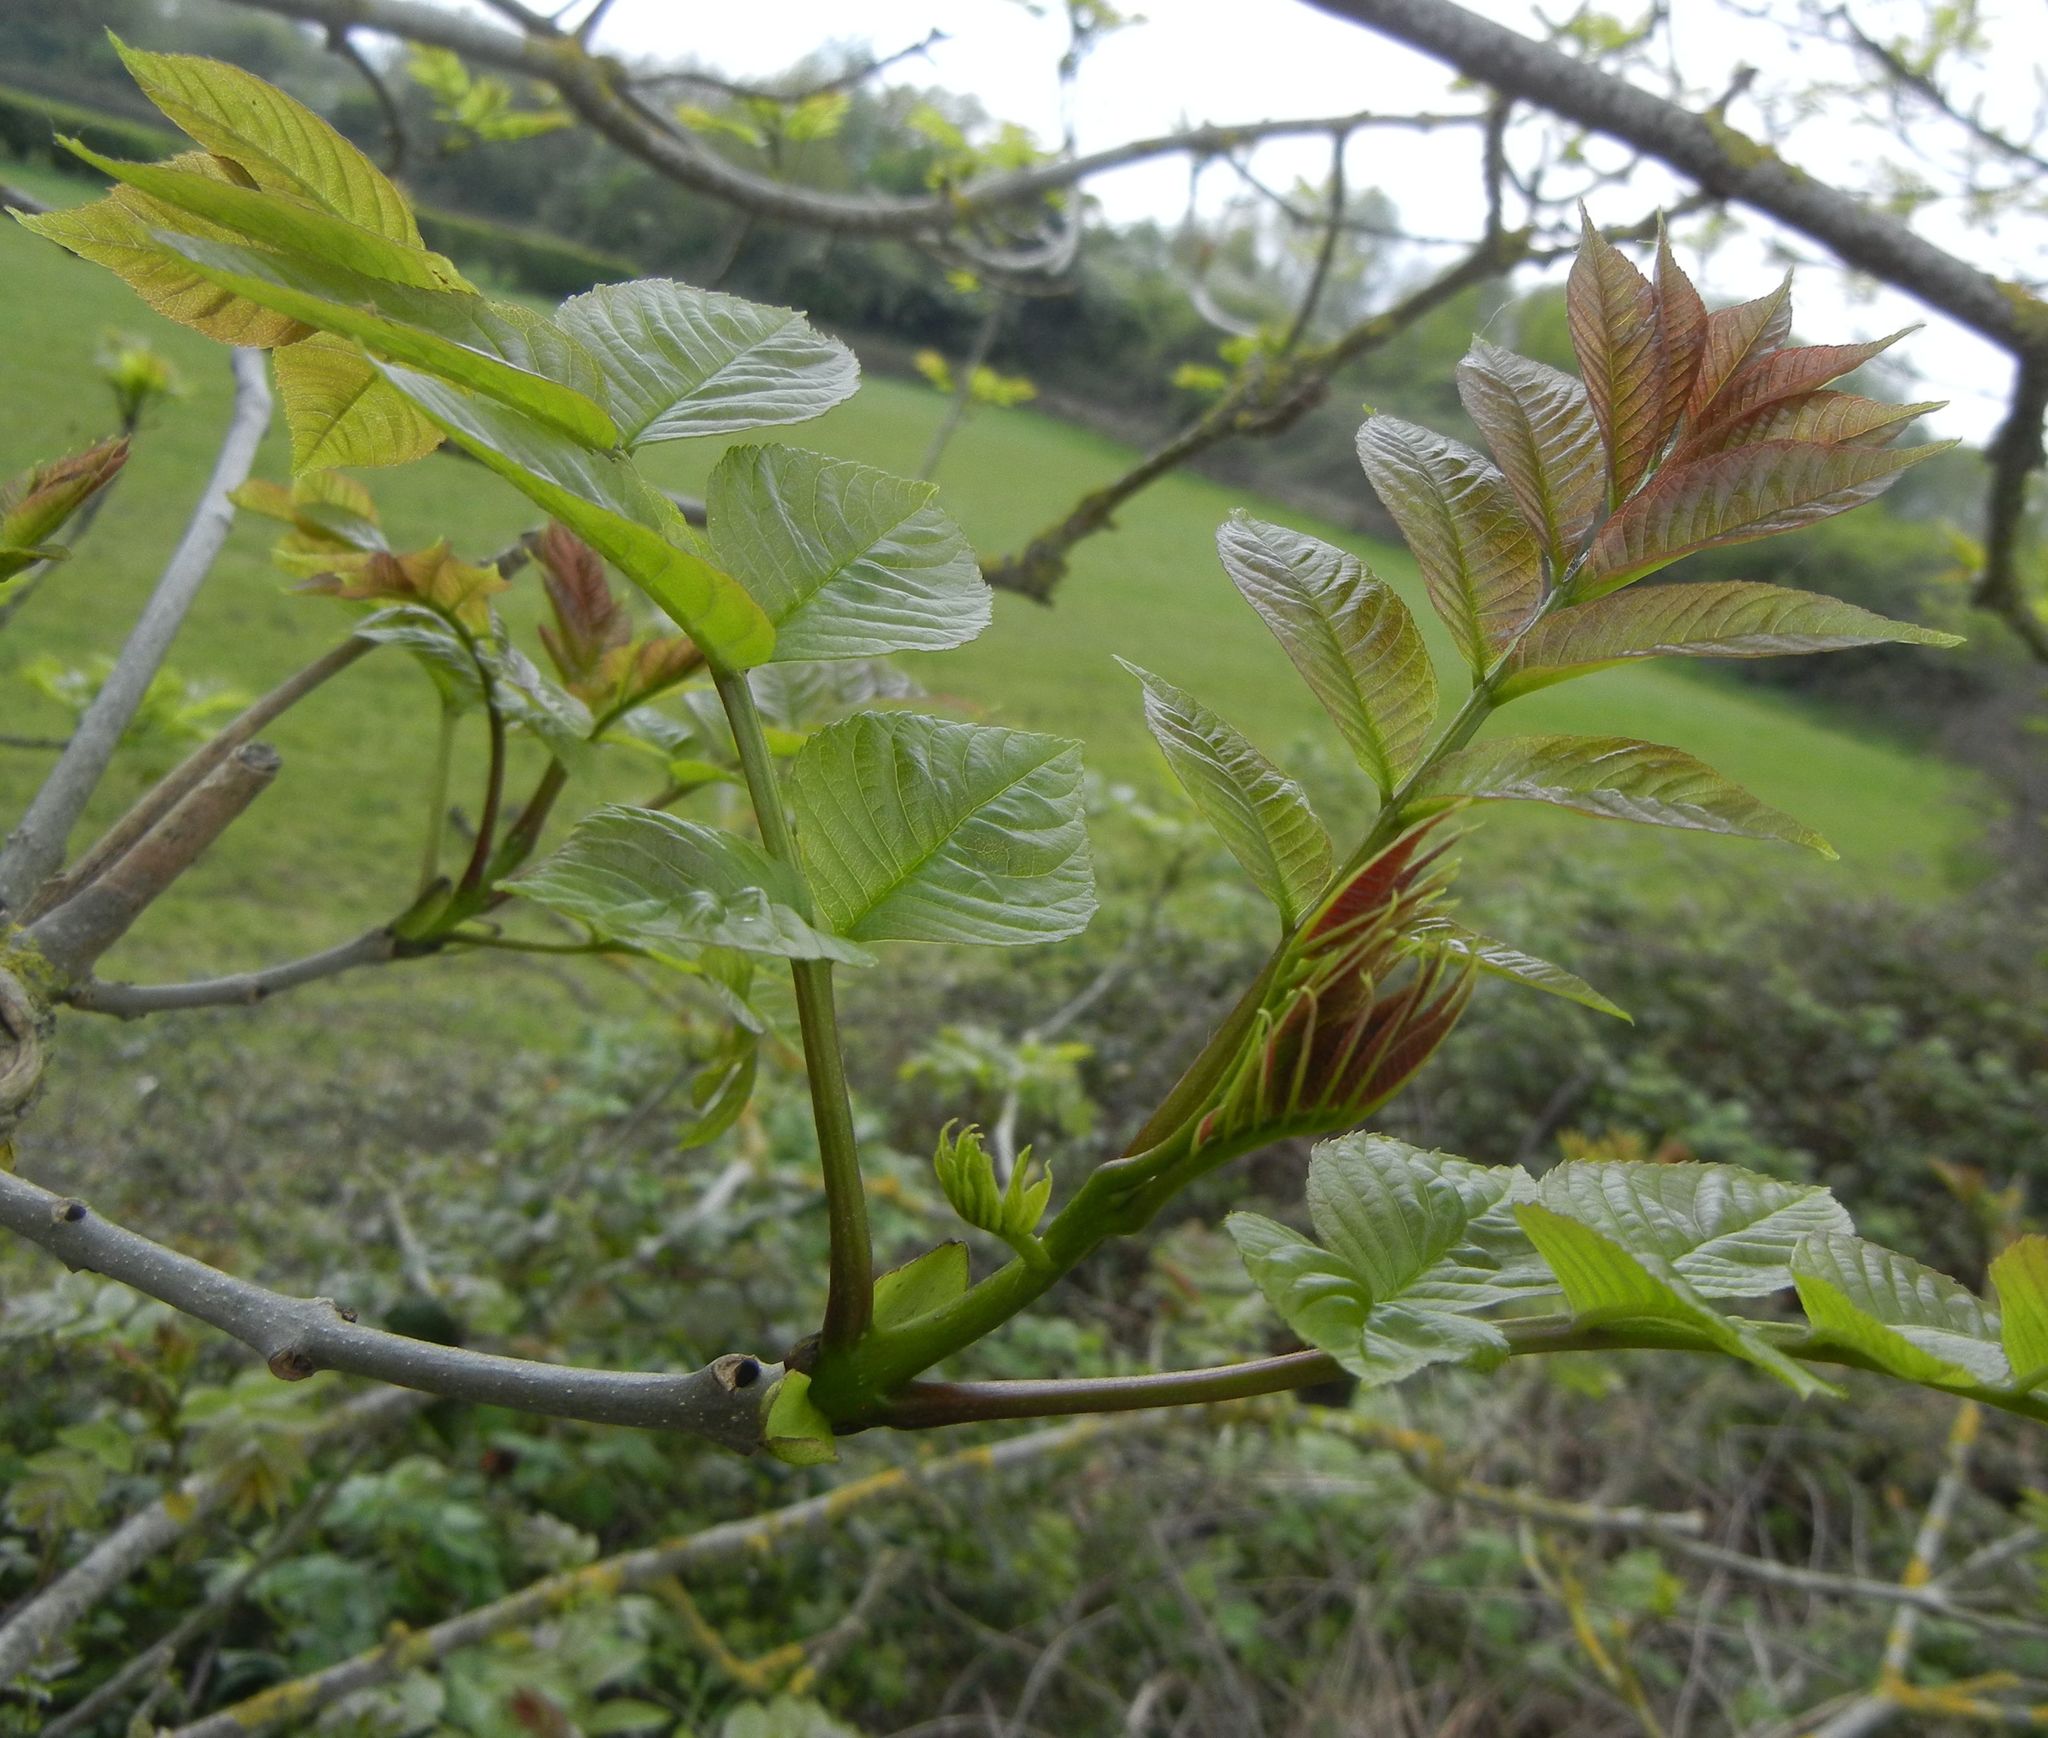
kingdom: Plantae
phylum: Tracheophyta
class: Magnoliopsida
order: Lamiales
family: Oleaceae
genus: Fraxinus
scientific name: Fraxinus excelsior
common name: European ash
